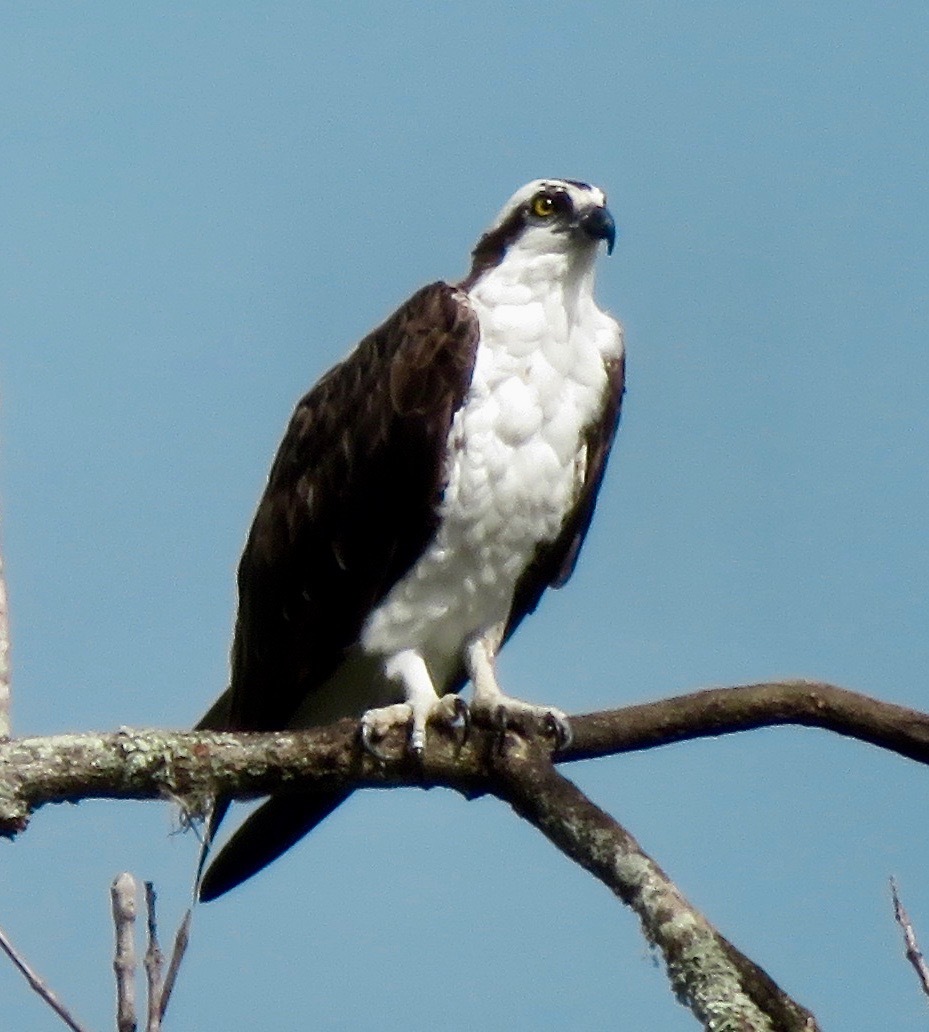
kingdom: Animalia
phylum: Chordata
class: Aves
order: Accipitriformes
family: Pandionidae
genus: Pandion
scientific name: Pandion haliaetus
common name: Osprey
